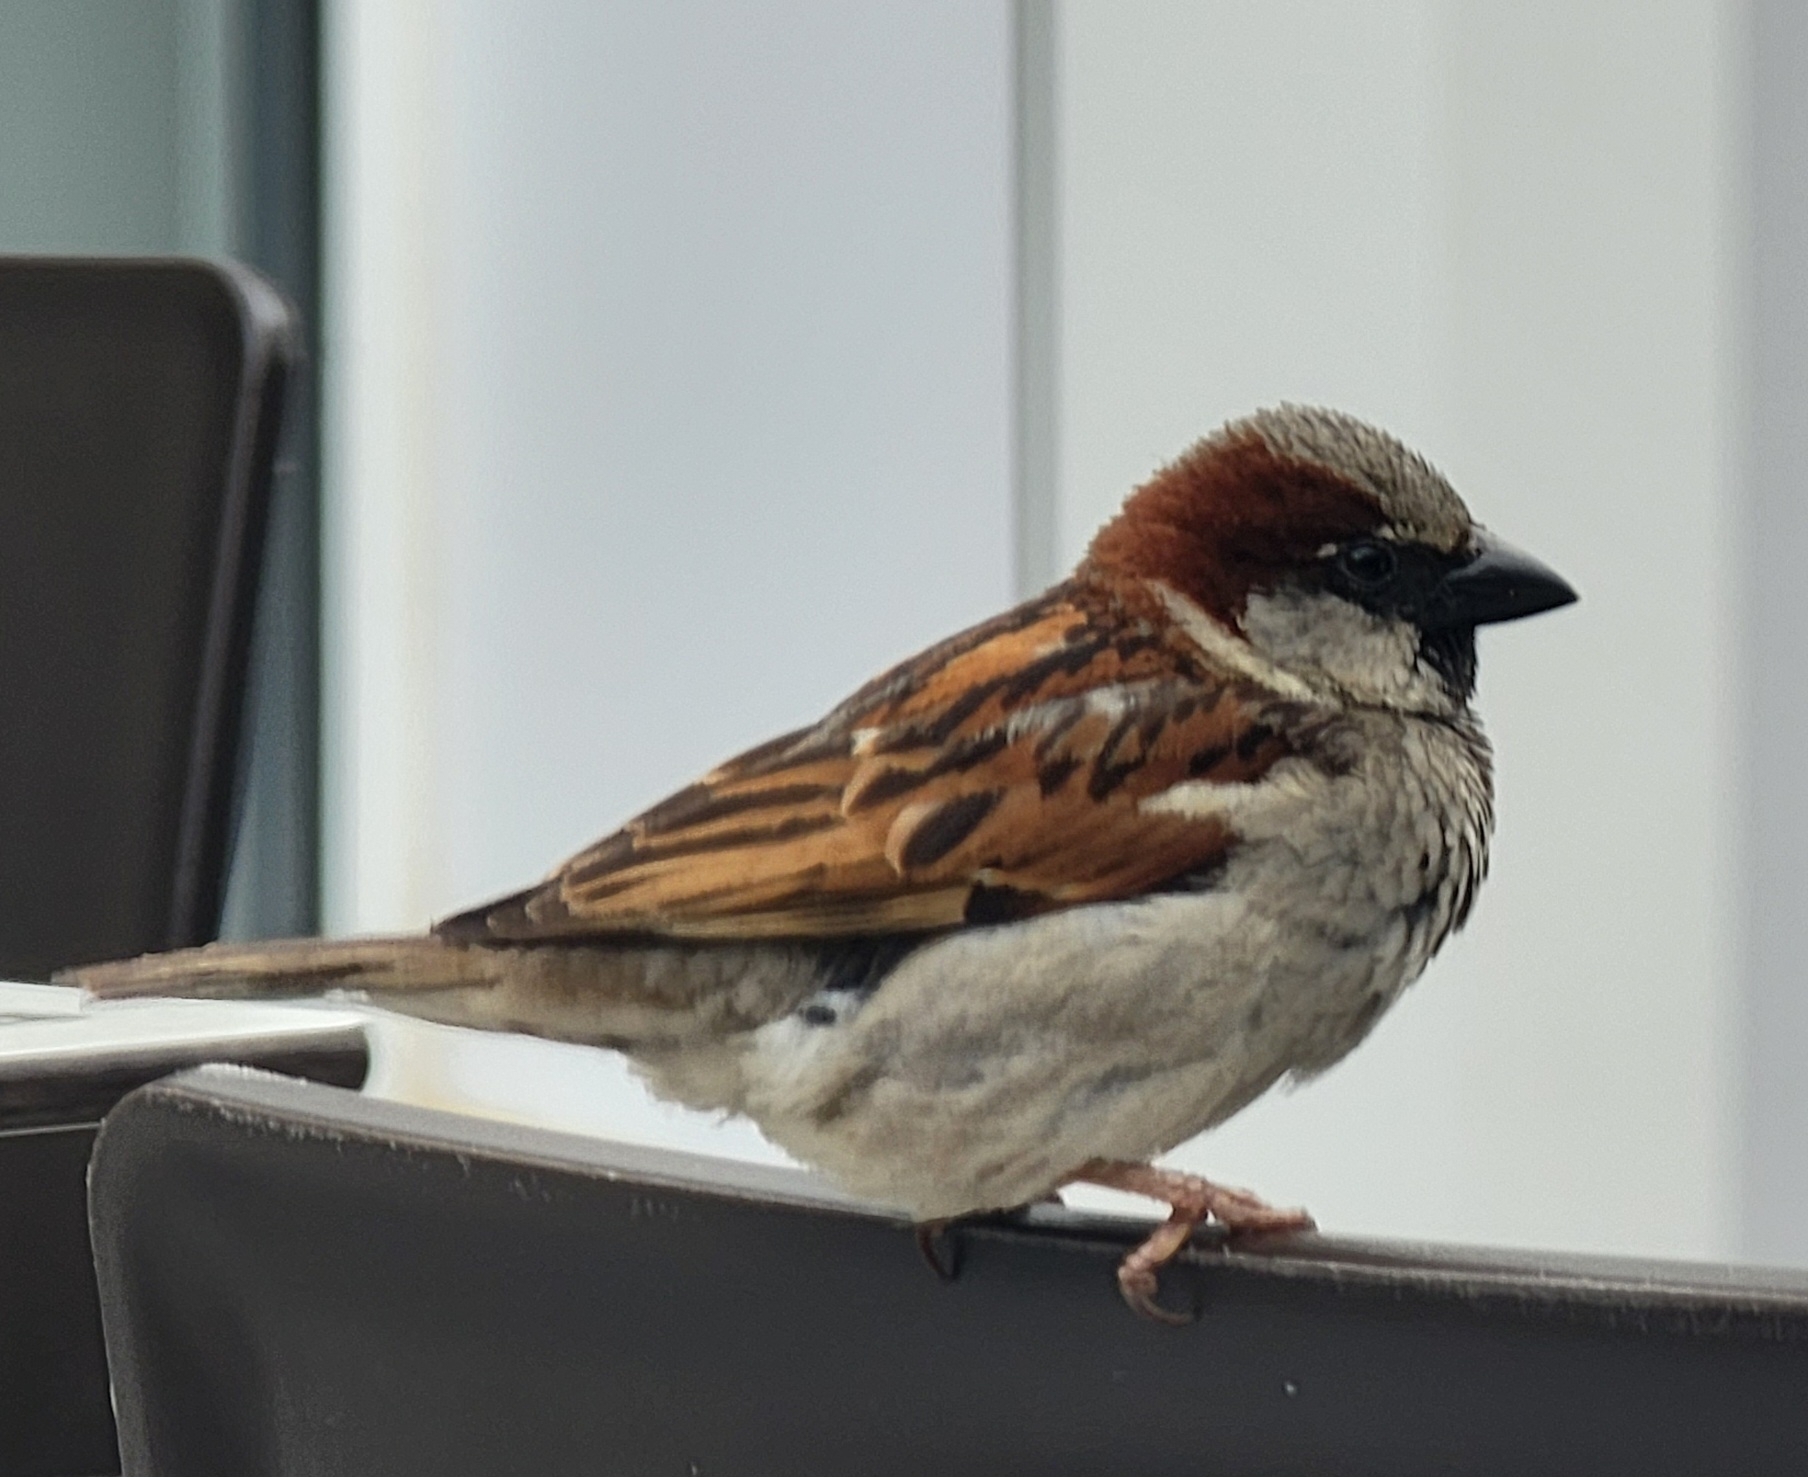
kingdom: Animalia
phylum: Chordata
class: Aves
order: Passeriformes
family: Passeridae
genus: Passer
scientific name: Passer domesticus
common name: House sparrow
